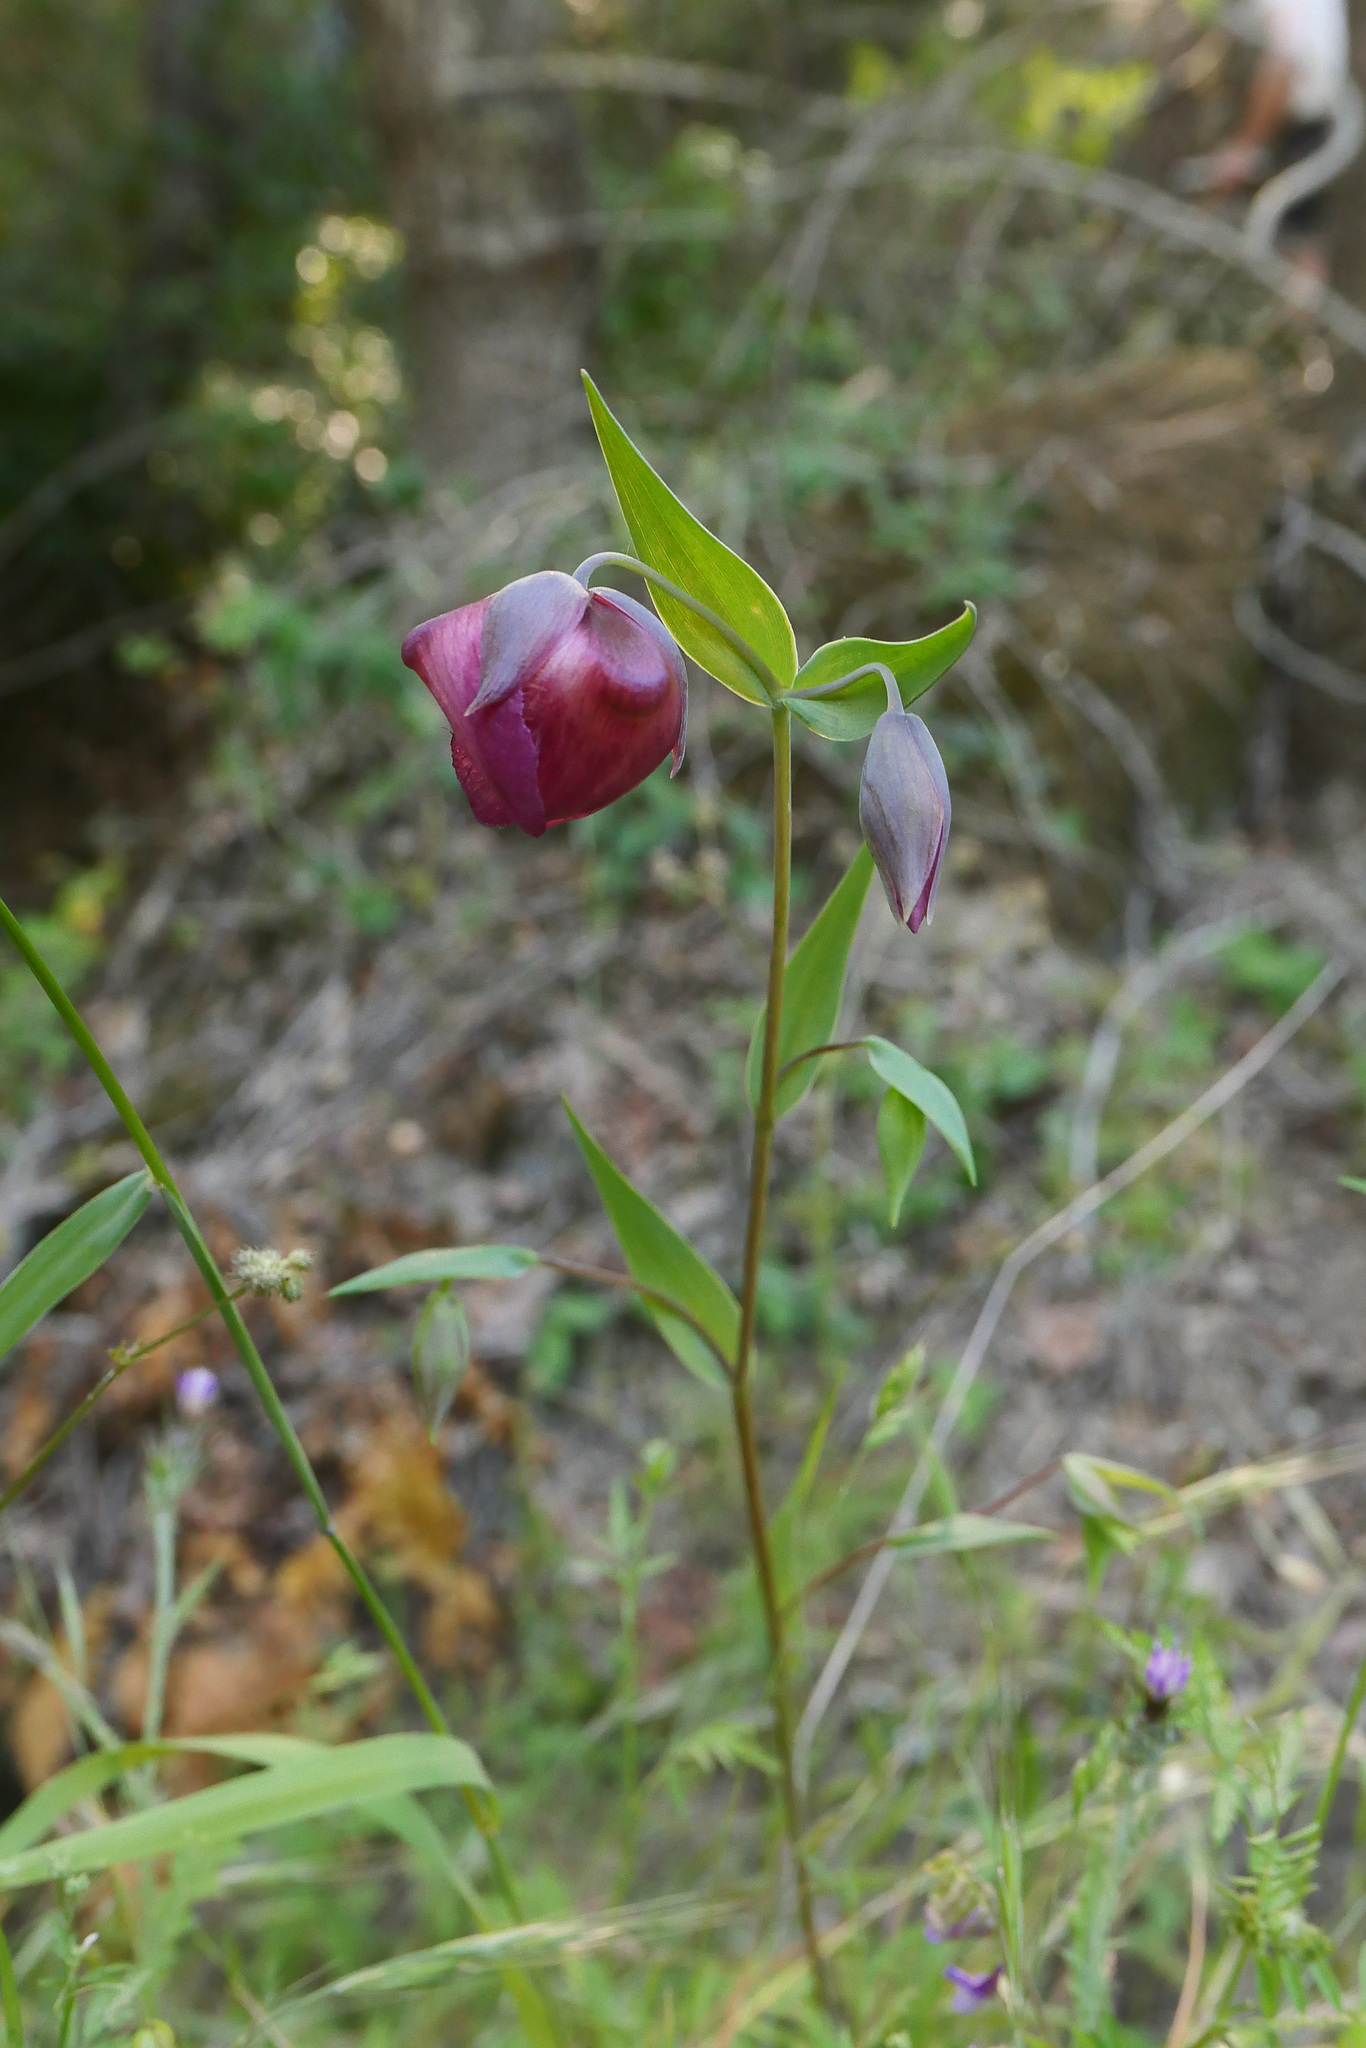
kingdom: Plantae
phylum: Tracheophyta
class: Liliopsida
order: Liliales
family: Liliaceae
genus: Calochortus
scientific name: Calochortus albus
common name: Fairy-lantern
